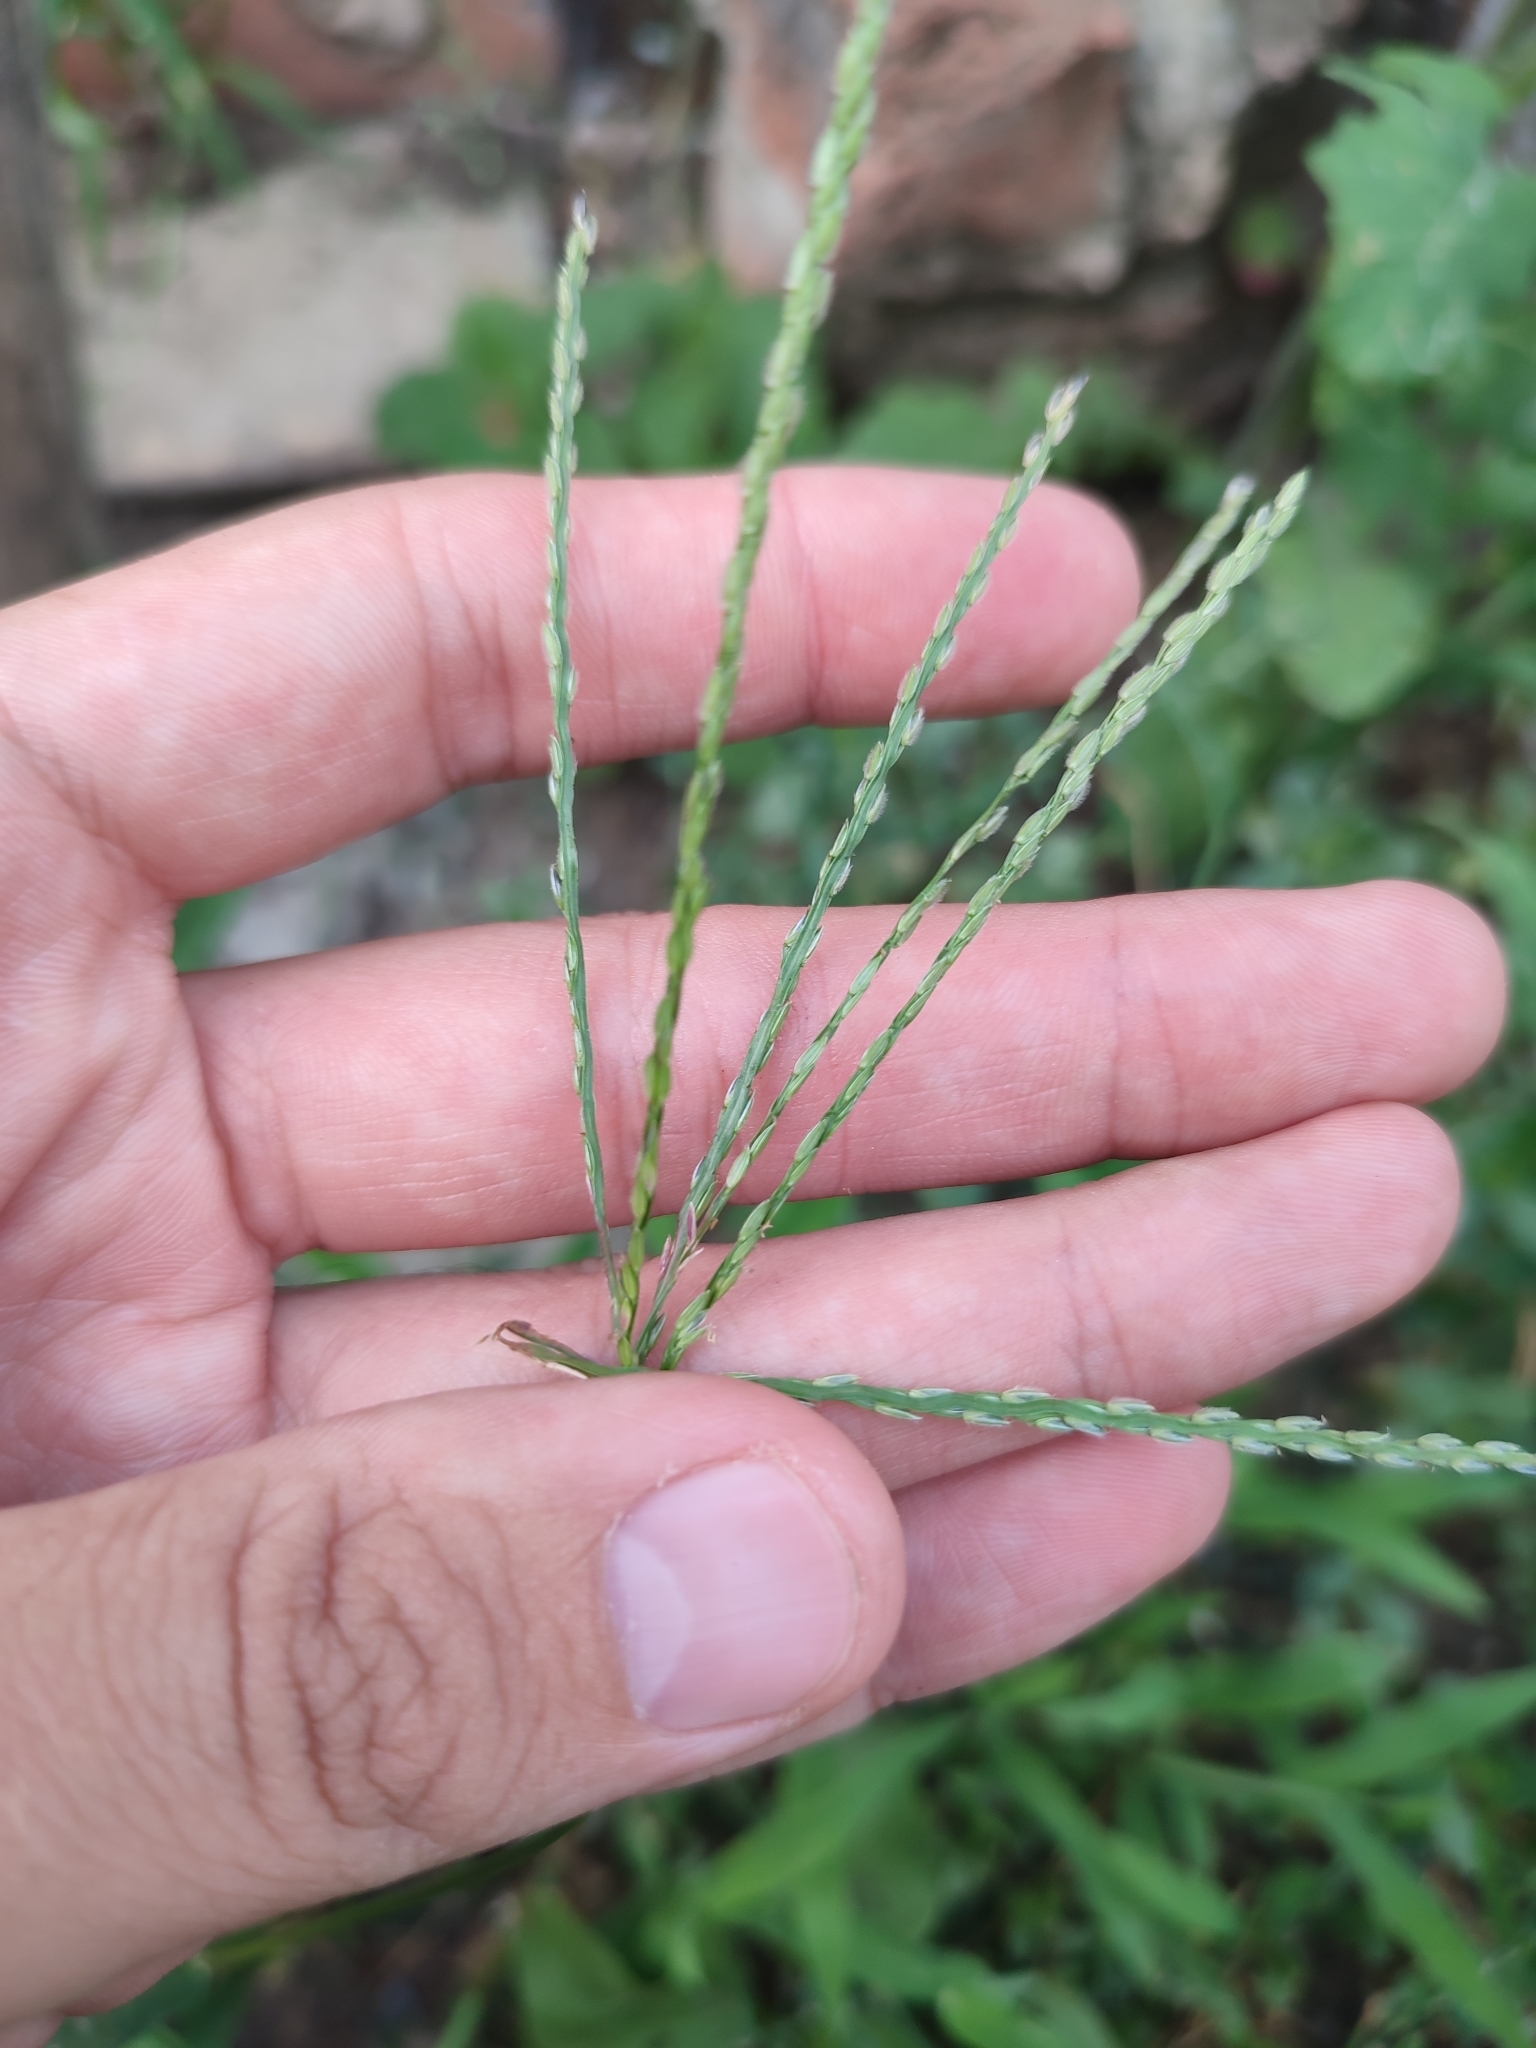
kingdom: Plantae
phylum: Tracheophyta
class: Liliopsida
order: Poales
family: Poaceae
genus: Digitaria
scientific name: Digitaria sanguinalis
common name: Hairy crabgrass
